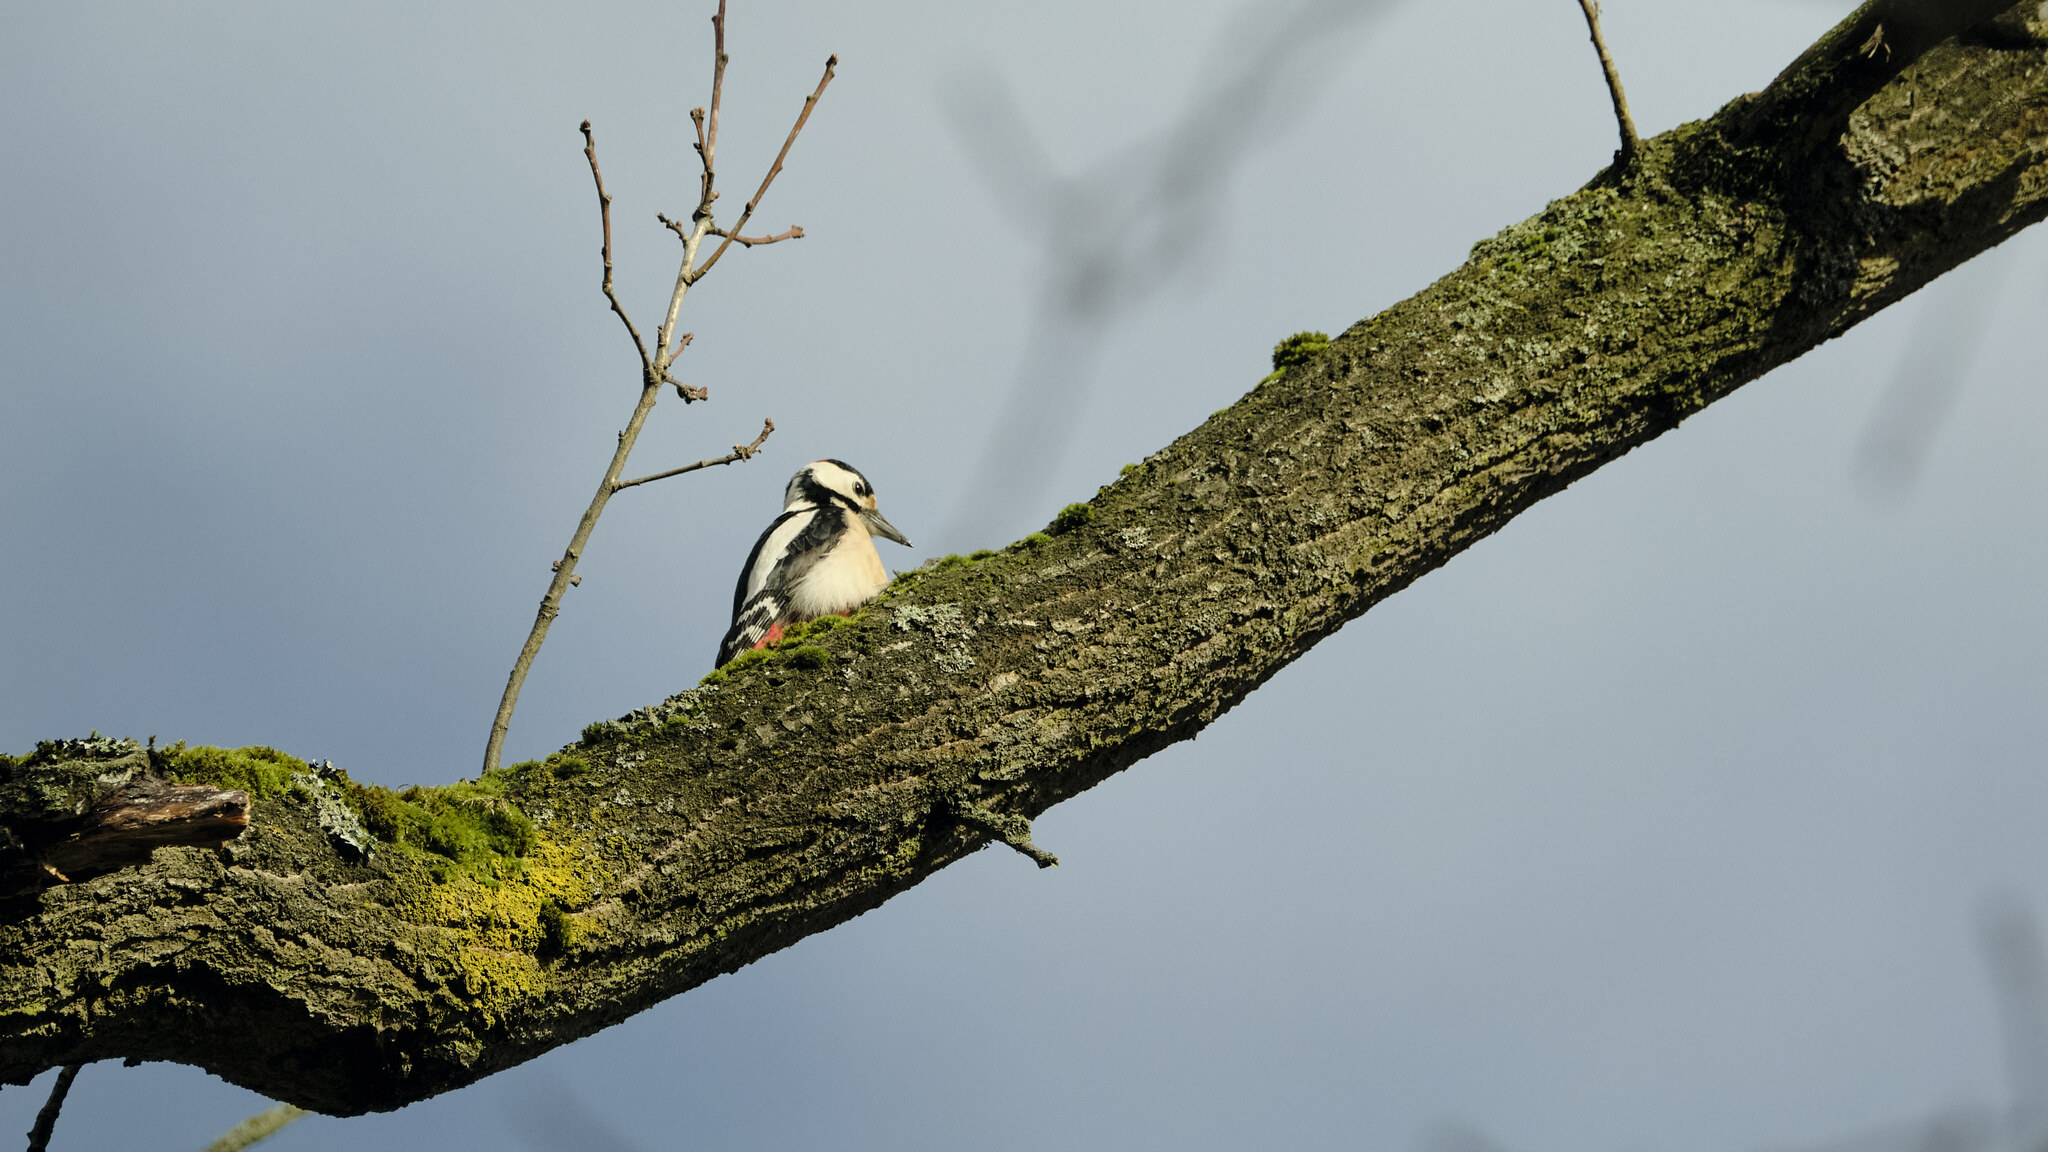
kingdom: Animalia
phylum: Chordata
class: Aves
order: Piciformes
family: Picidae
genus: Dendrocopos
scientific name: Dendrocopos major
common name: Great spotted woodpecker
